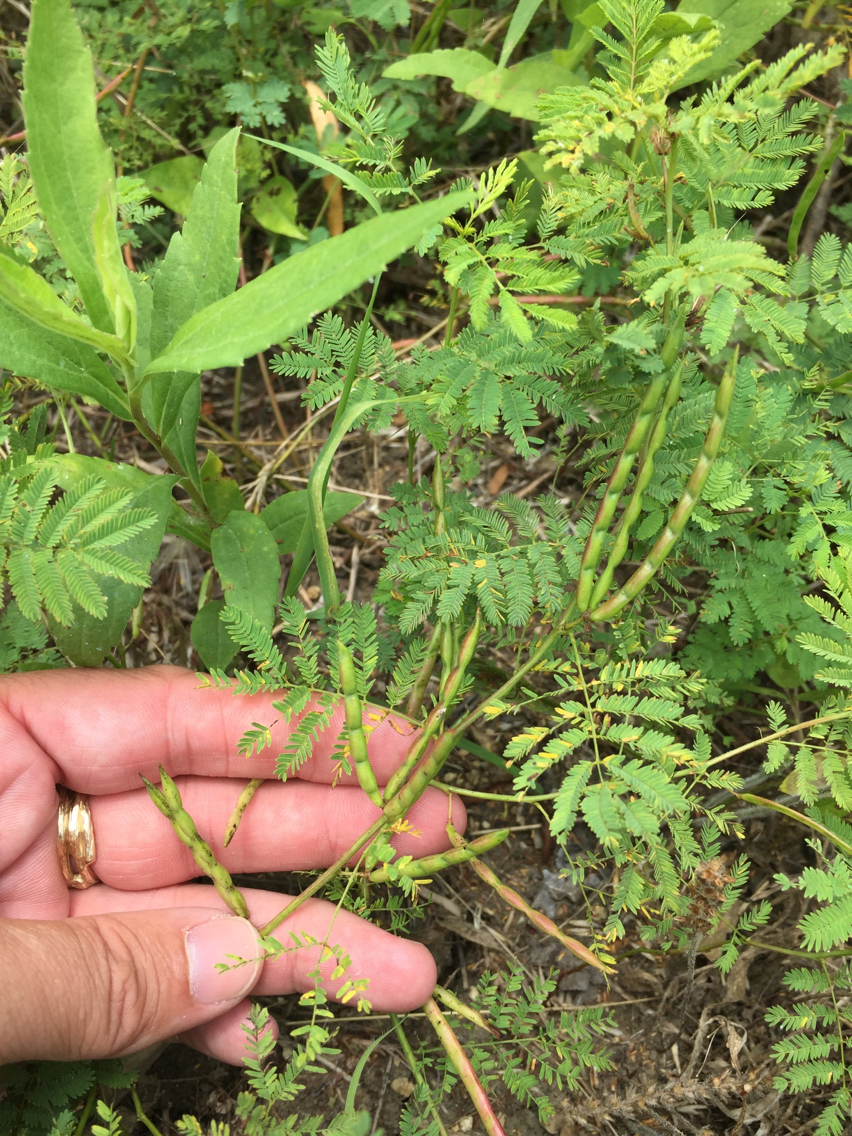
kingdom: Plantae
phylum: Tracheophyta
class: Magnoliopsida
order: Fabales
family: Fabaceae
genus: Desmanthus
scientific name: Desmanthus leptolobus
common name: Prairie-mimosa
